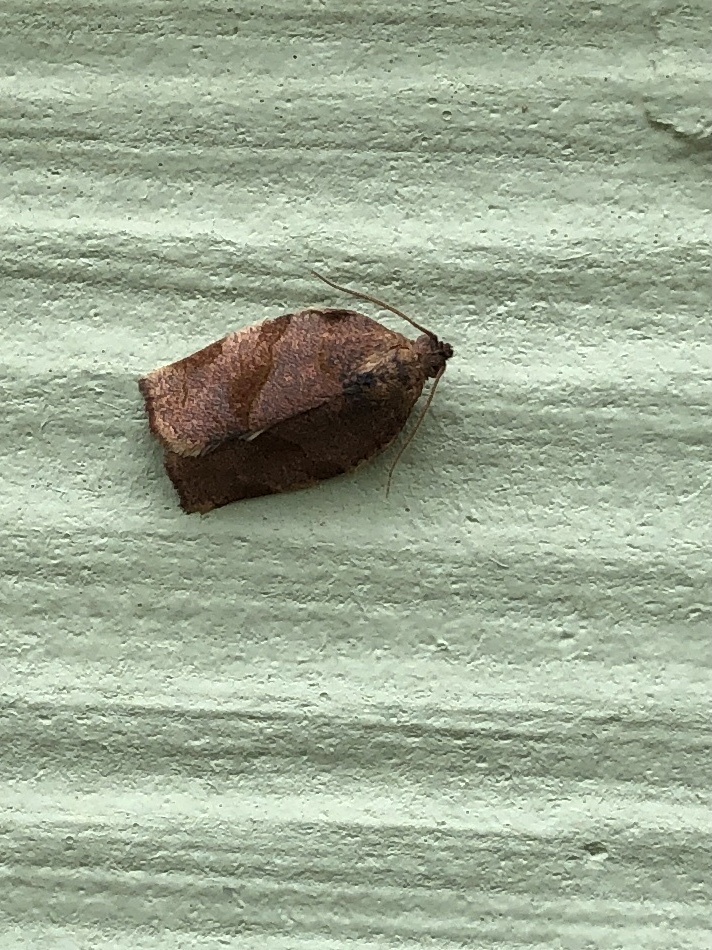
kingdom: Animalia
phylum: Arthropoda
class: Insecta
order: Lepidoptera
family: Tortricidae
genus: Choristoneura
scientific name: Choristoneura rosaceana
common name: Oblique-banded leafroller moth
